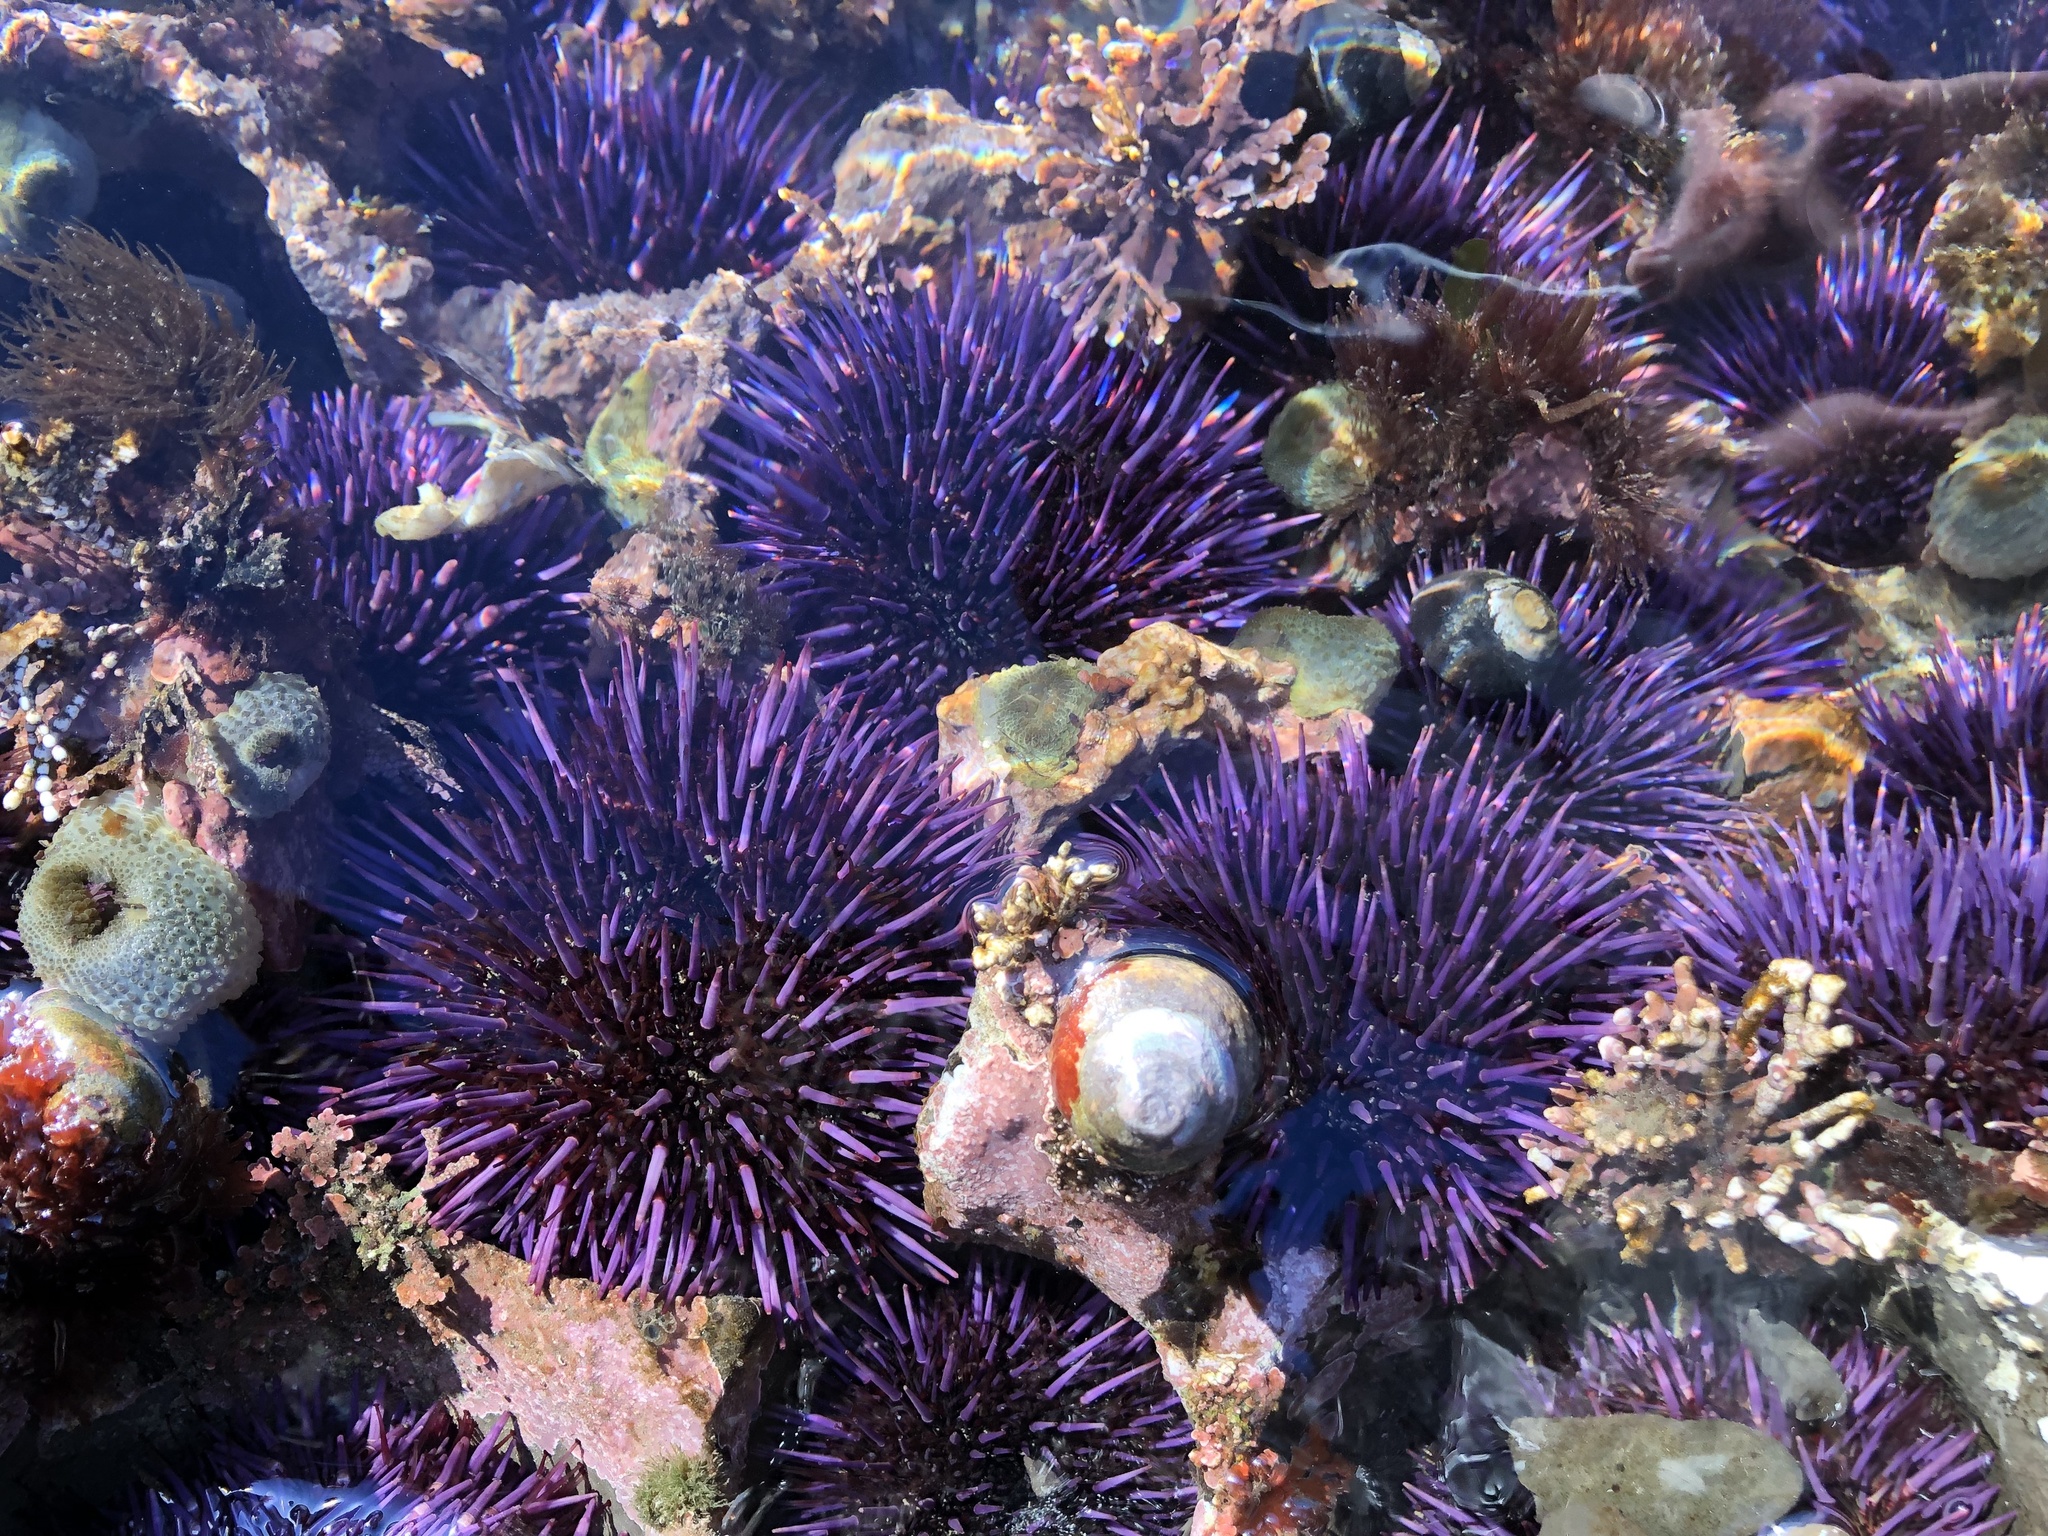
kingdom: Animalia
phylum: Echinodermata
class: Echinoidea
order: Camarodonta
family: Strongylocentrotidae
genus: Strongylocentrotus
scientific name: Strongylocentrotus purpuratus
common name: Purple sea urchin
